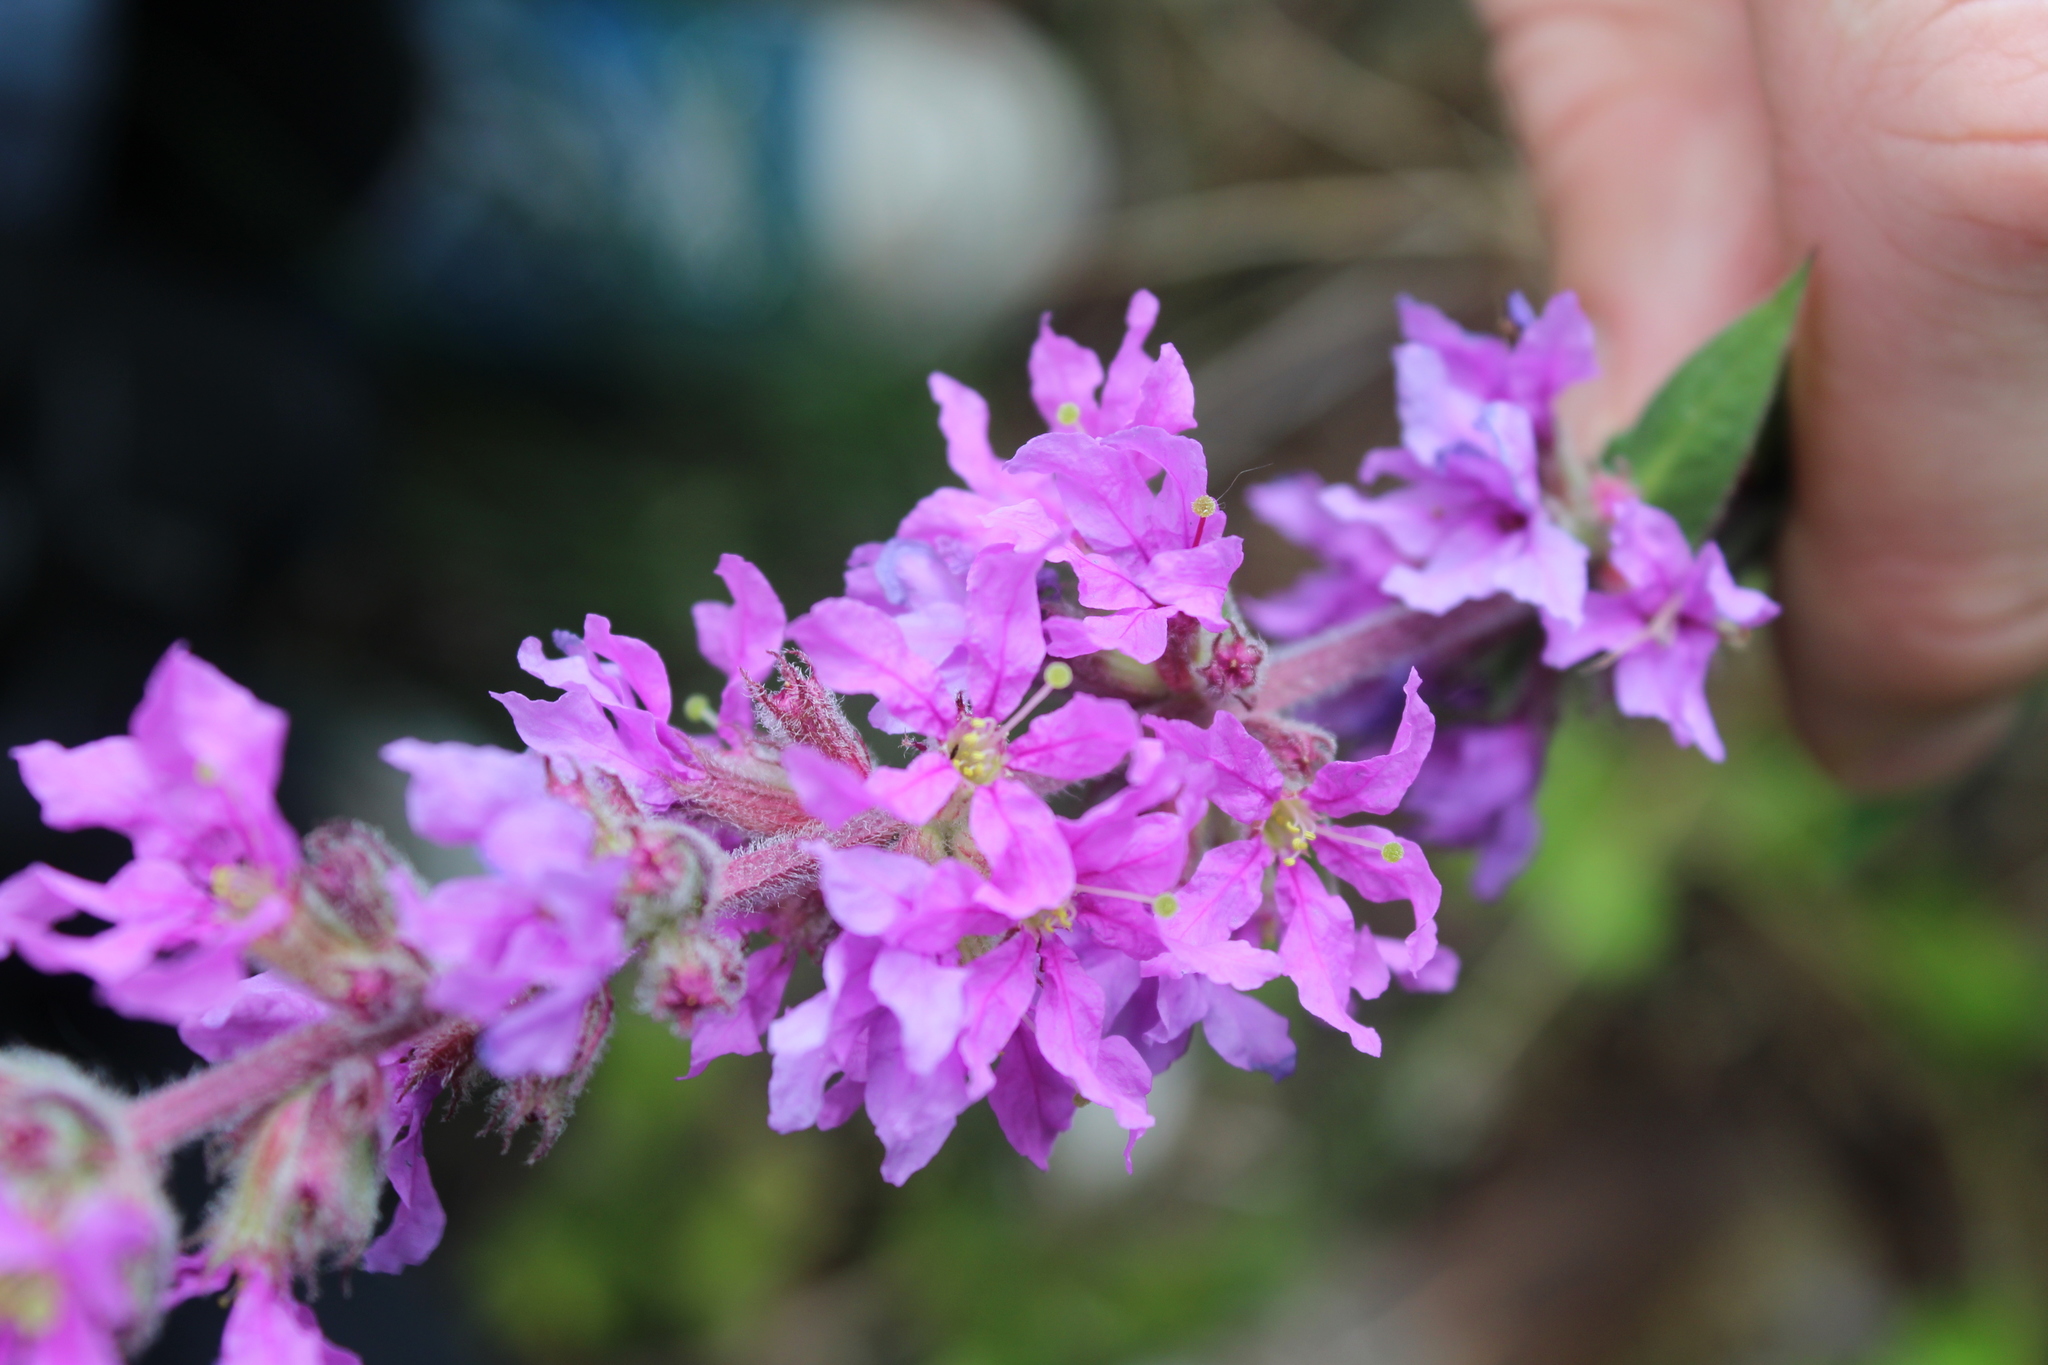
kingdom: Plantae
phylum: Tracheophyta
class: Magnoliopsida
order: Myrtales
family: Lythraceae
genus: Lythrum
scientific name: Lythrum salicaria
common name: Purple loosestrife
